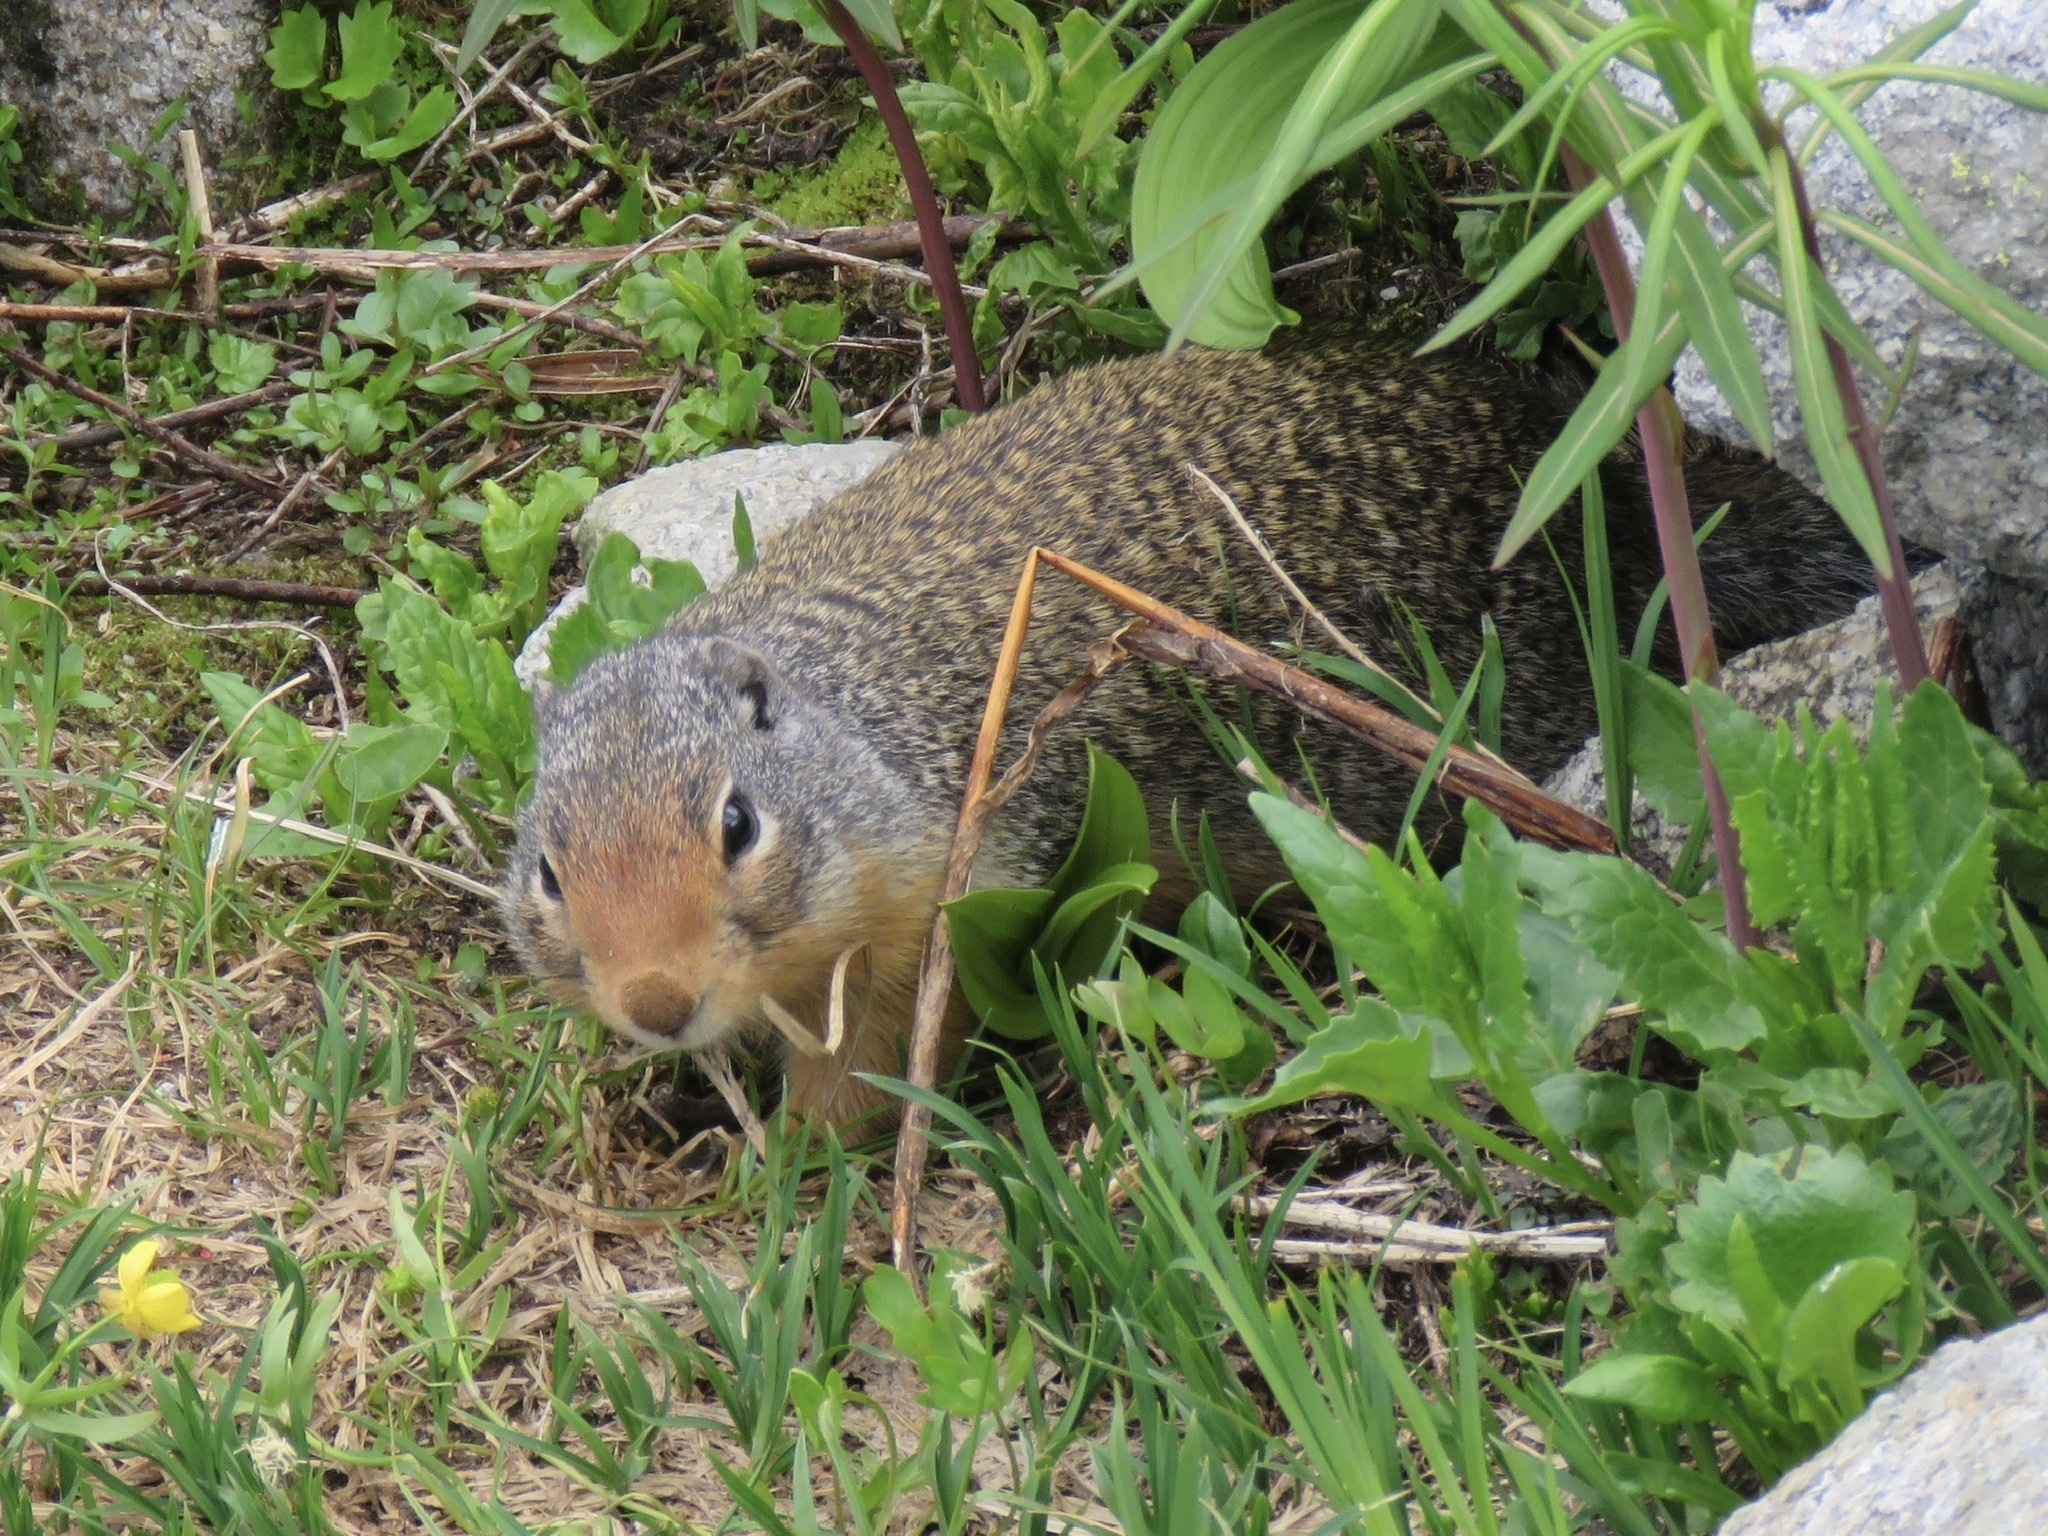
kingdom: Animalia
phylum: Chordata
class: Mammalia
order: Rodentia
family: Sciuridae
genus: Urocitellus
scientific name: Urocitellus columbianus
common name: Columbian ground squirrel
